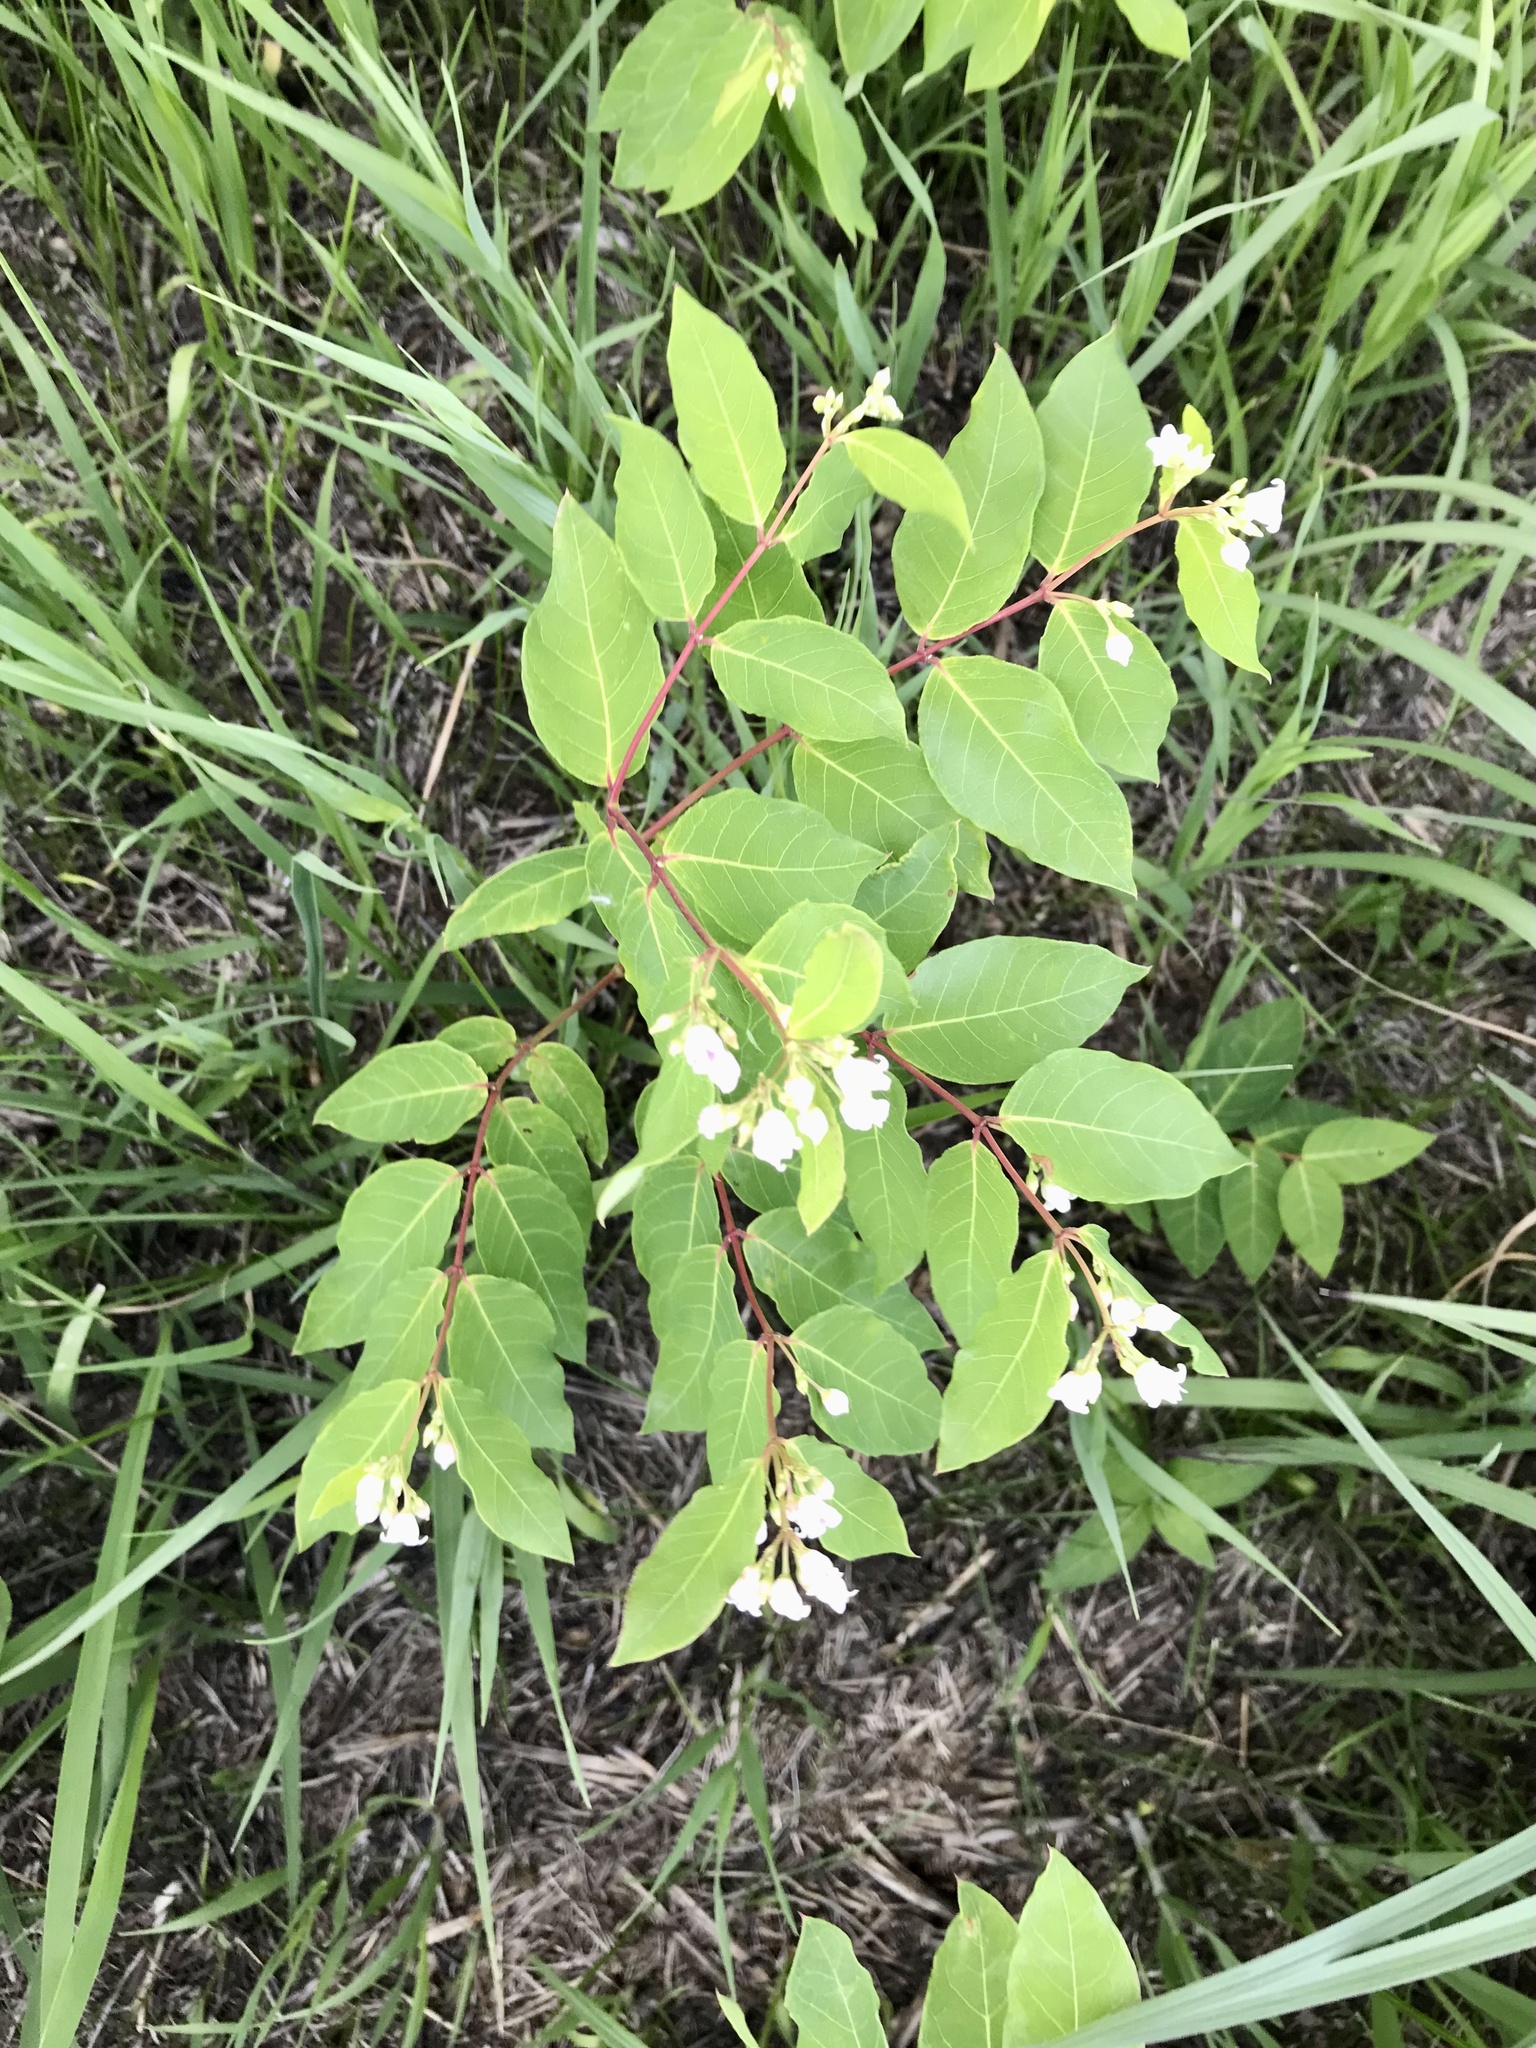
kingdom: Plantae
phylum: Tracheophyta
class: Magnoliopsida
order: Gentianales
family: Apocynaceae
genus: Apocynum
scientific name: Apocynum androsaemifolium
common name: Spreading dogbane
